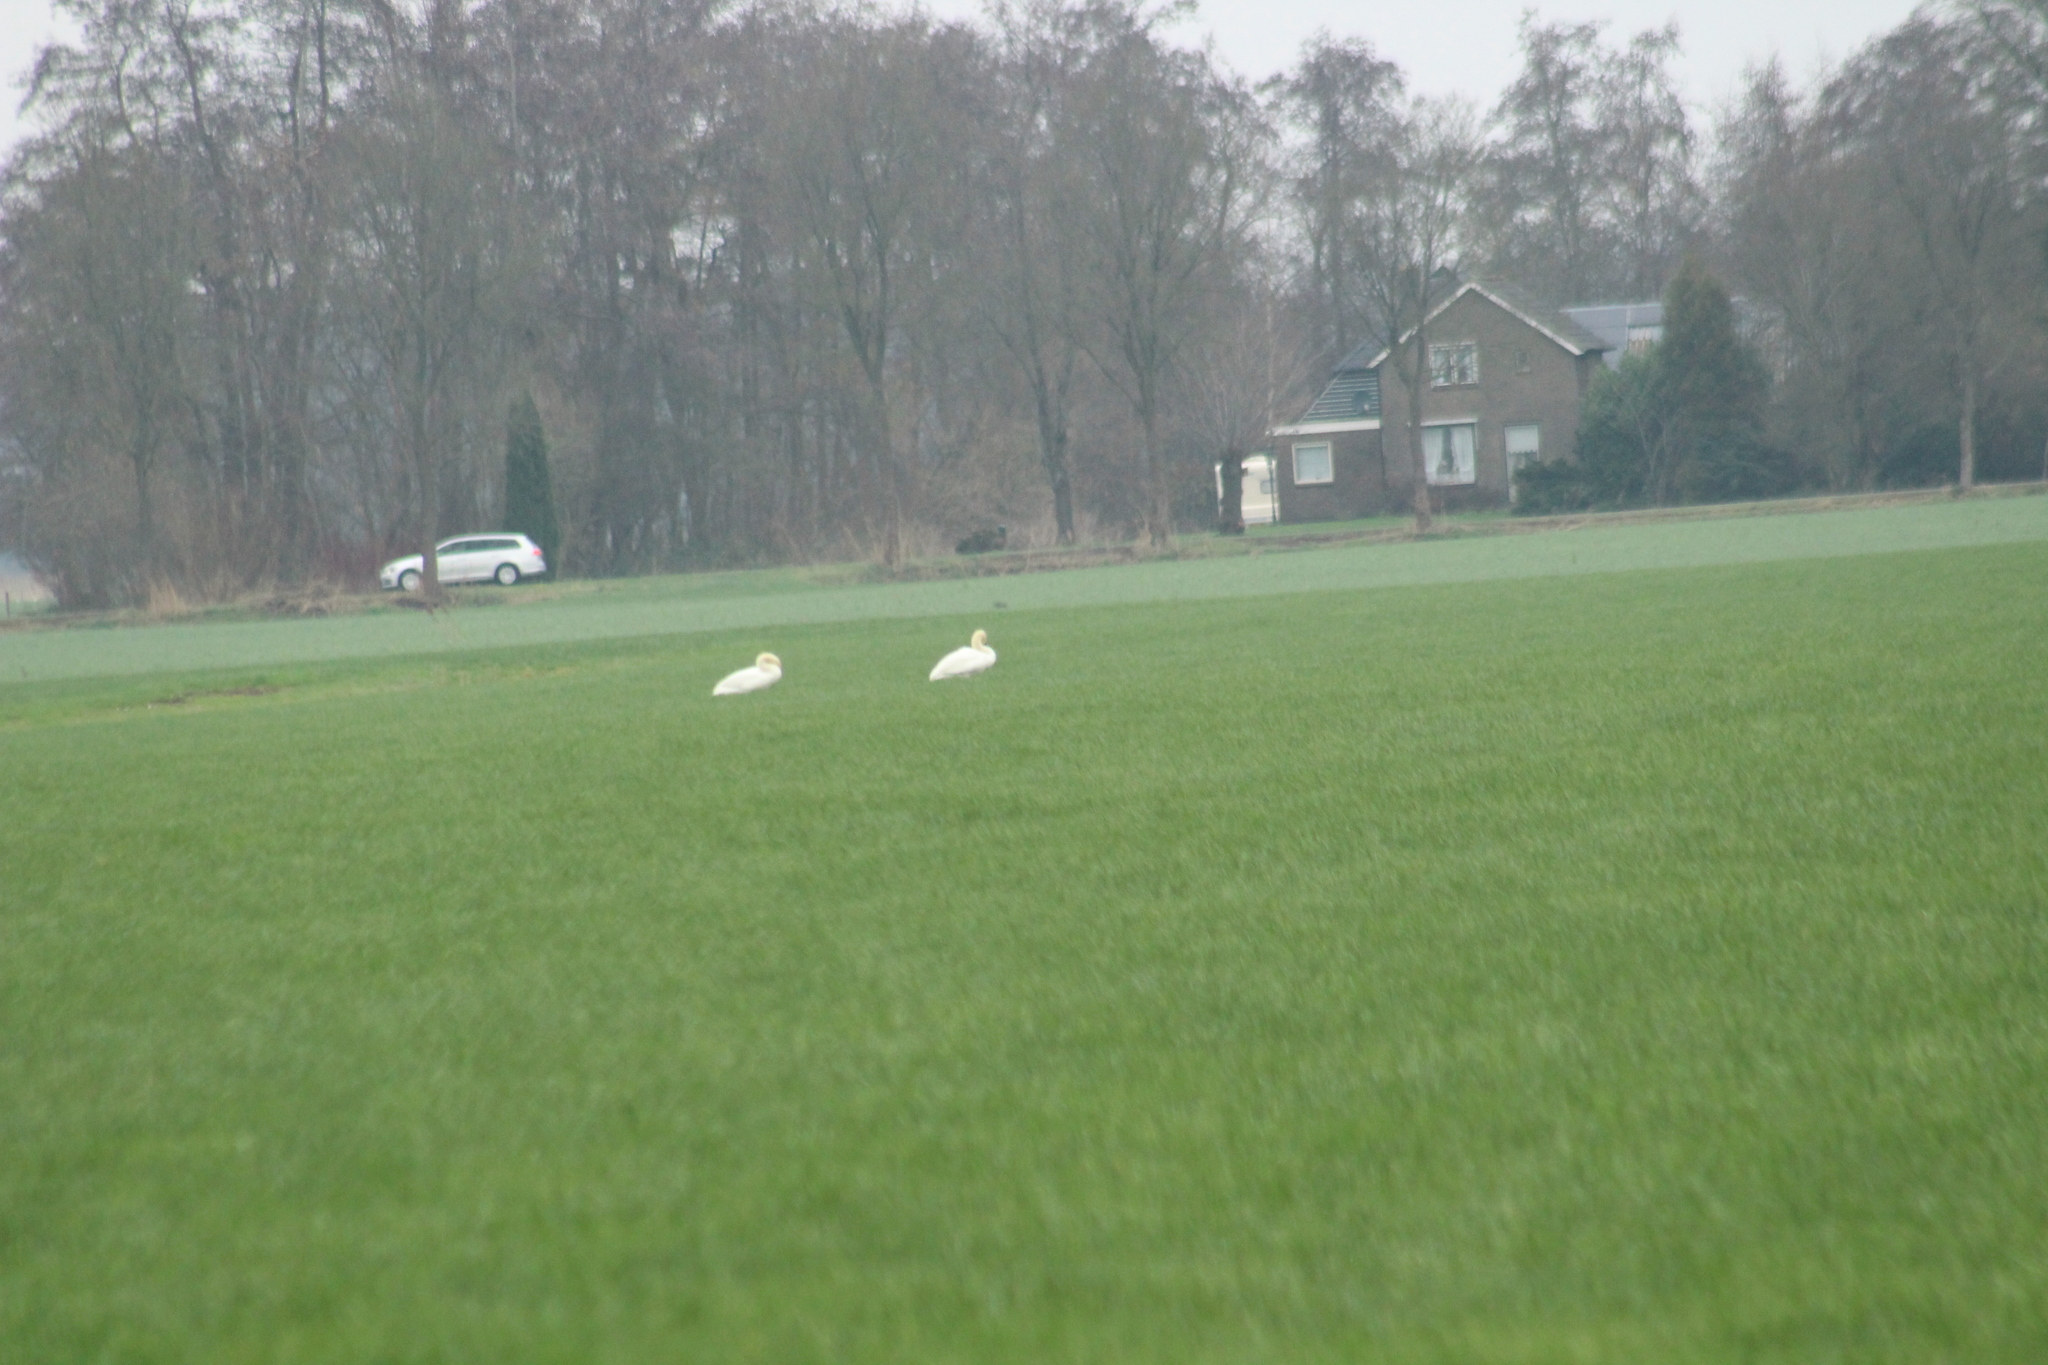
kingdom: Animalia
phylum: Chordata
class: Aves
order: Anseriformes
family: Anatidae
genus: Cygnus
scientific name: Cygnus olor
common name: Mute swan
